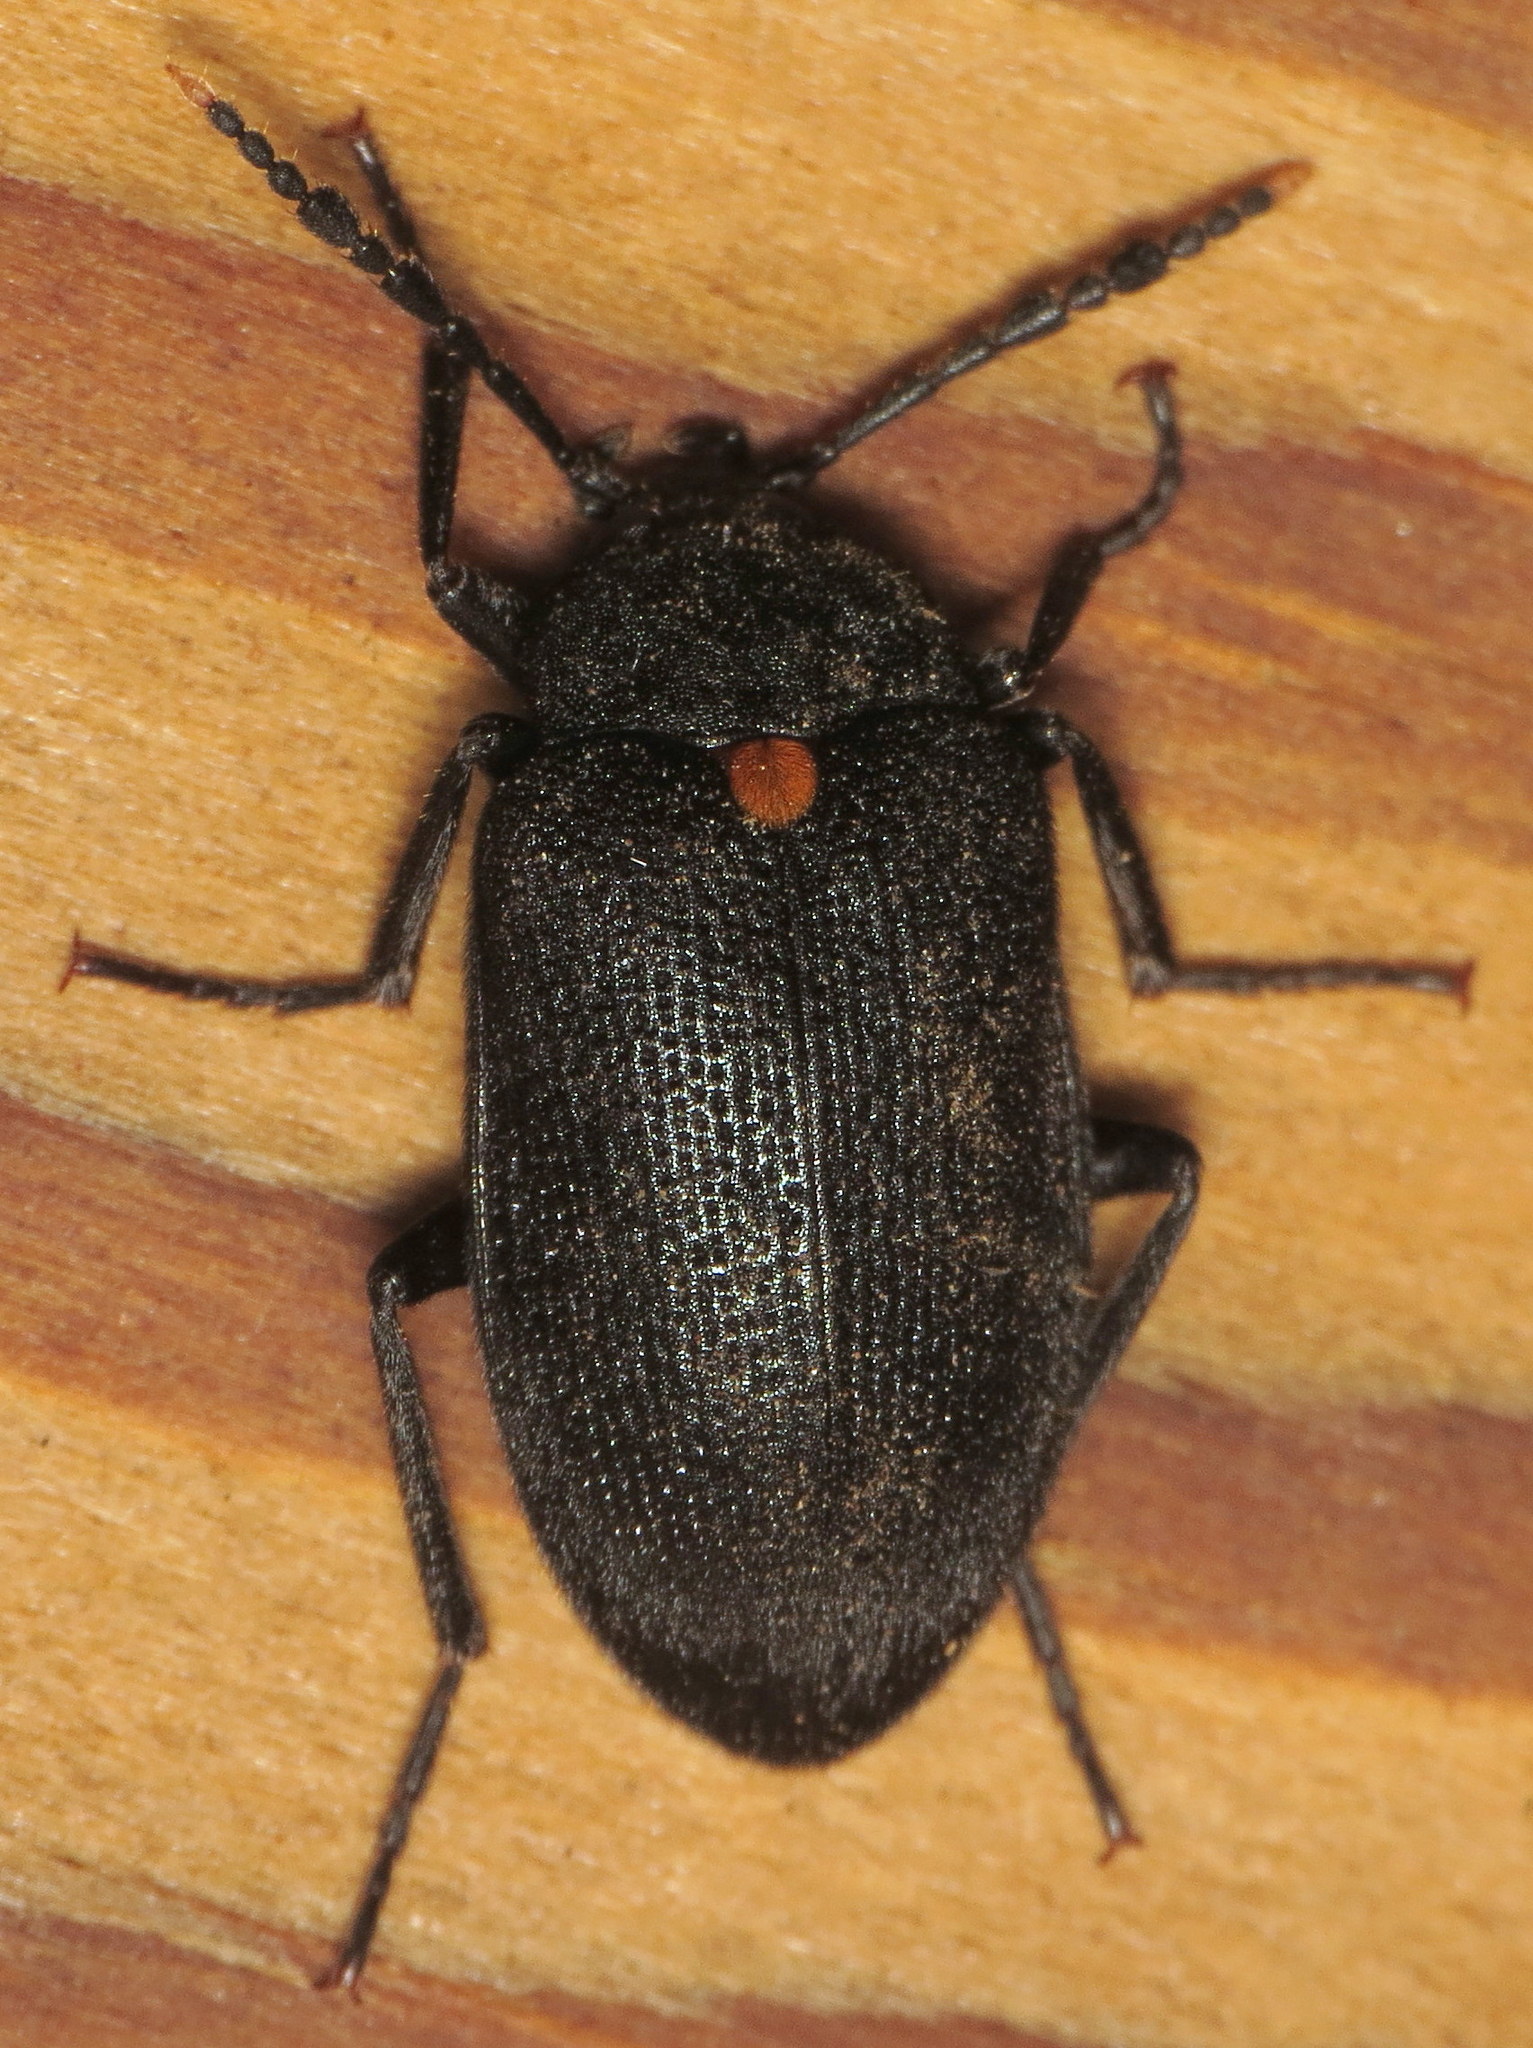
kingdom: Animalia
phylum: Arthropoda
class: Insecta
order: Coleoptera
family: Tetratomidae
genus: Penthe
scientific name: Penthe obliquata
